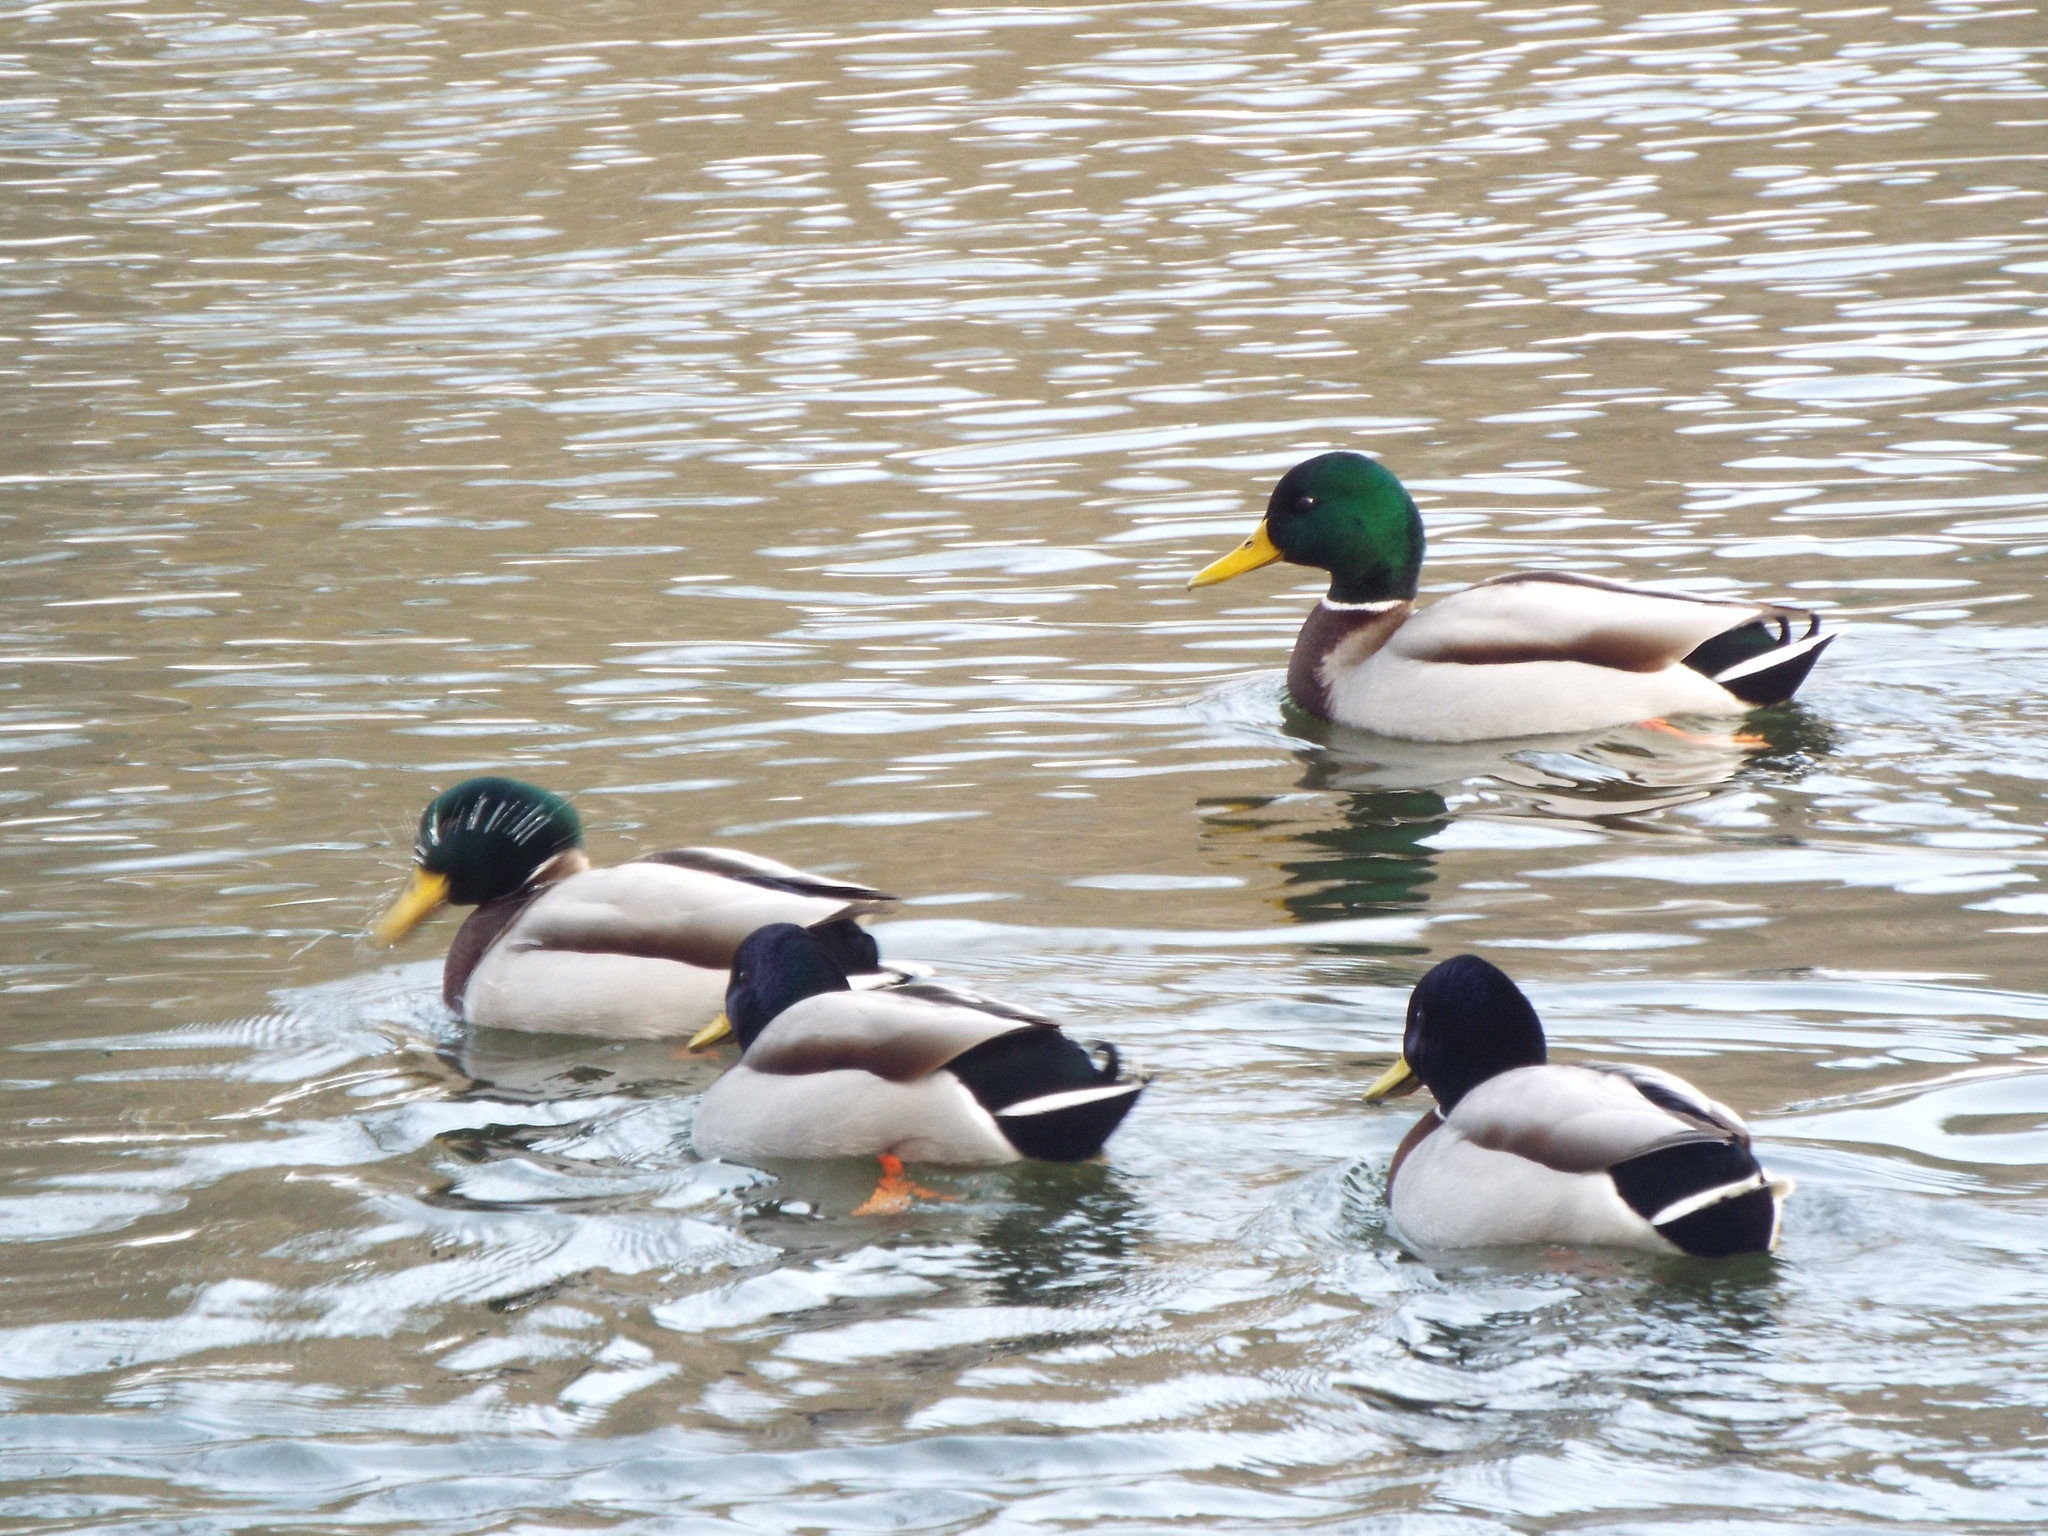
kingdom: Animalia
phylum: Chordata
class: Aves
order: Anseriformes
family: Anatidae
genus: Anas
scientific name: Anas platyrhynchos
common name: Mallard
